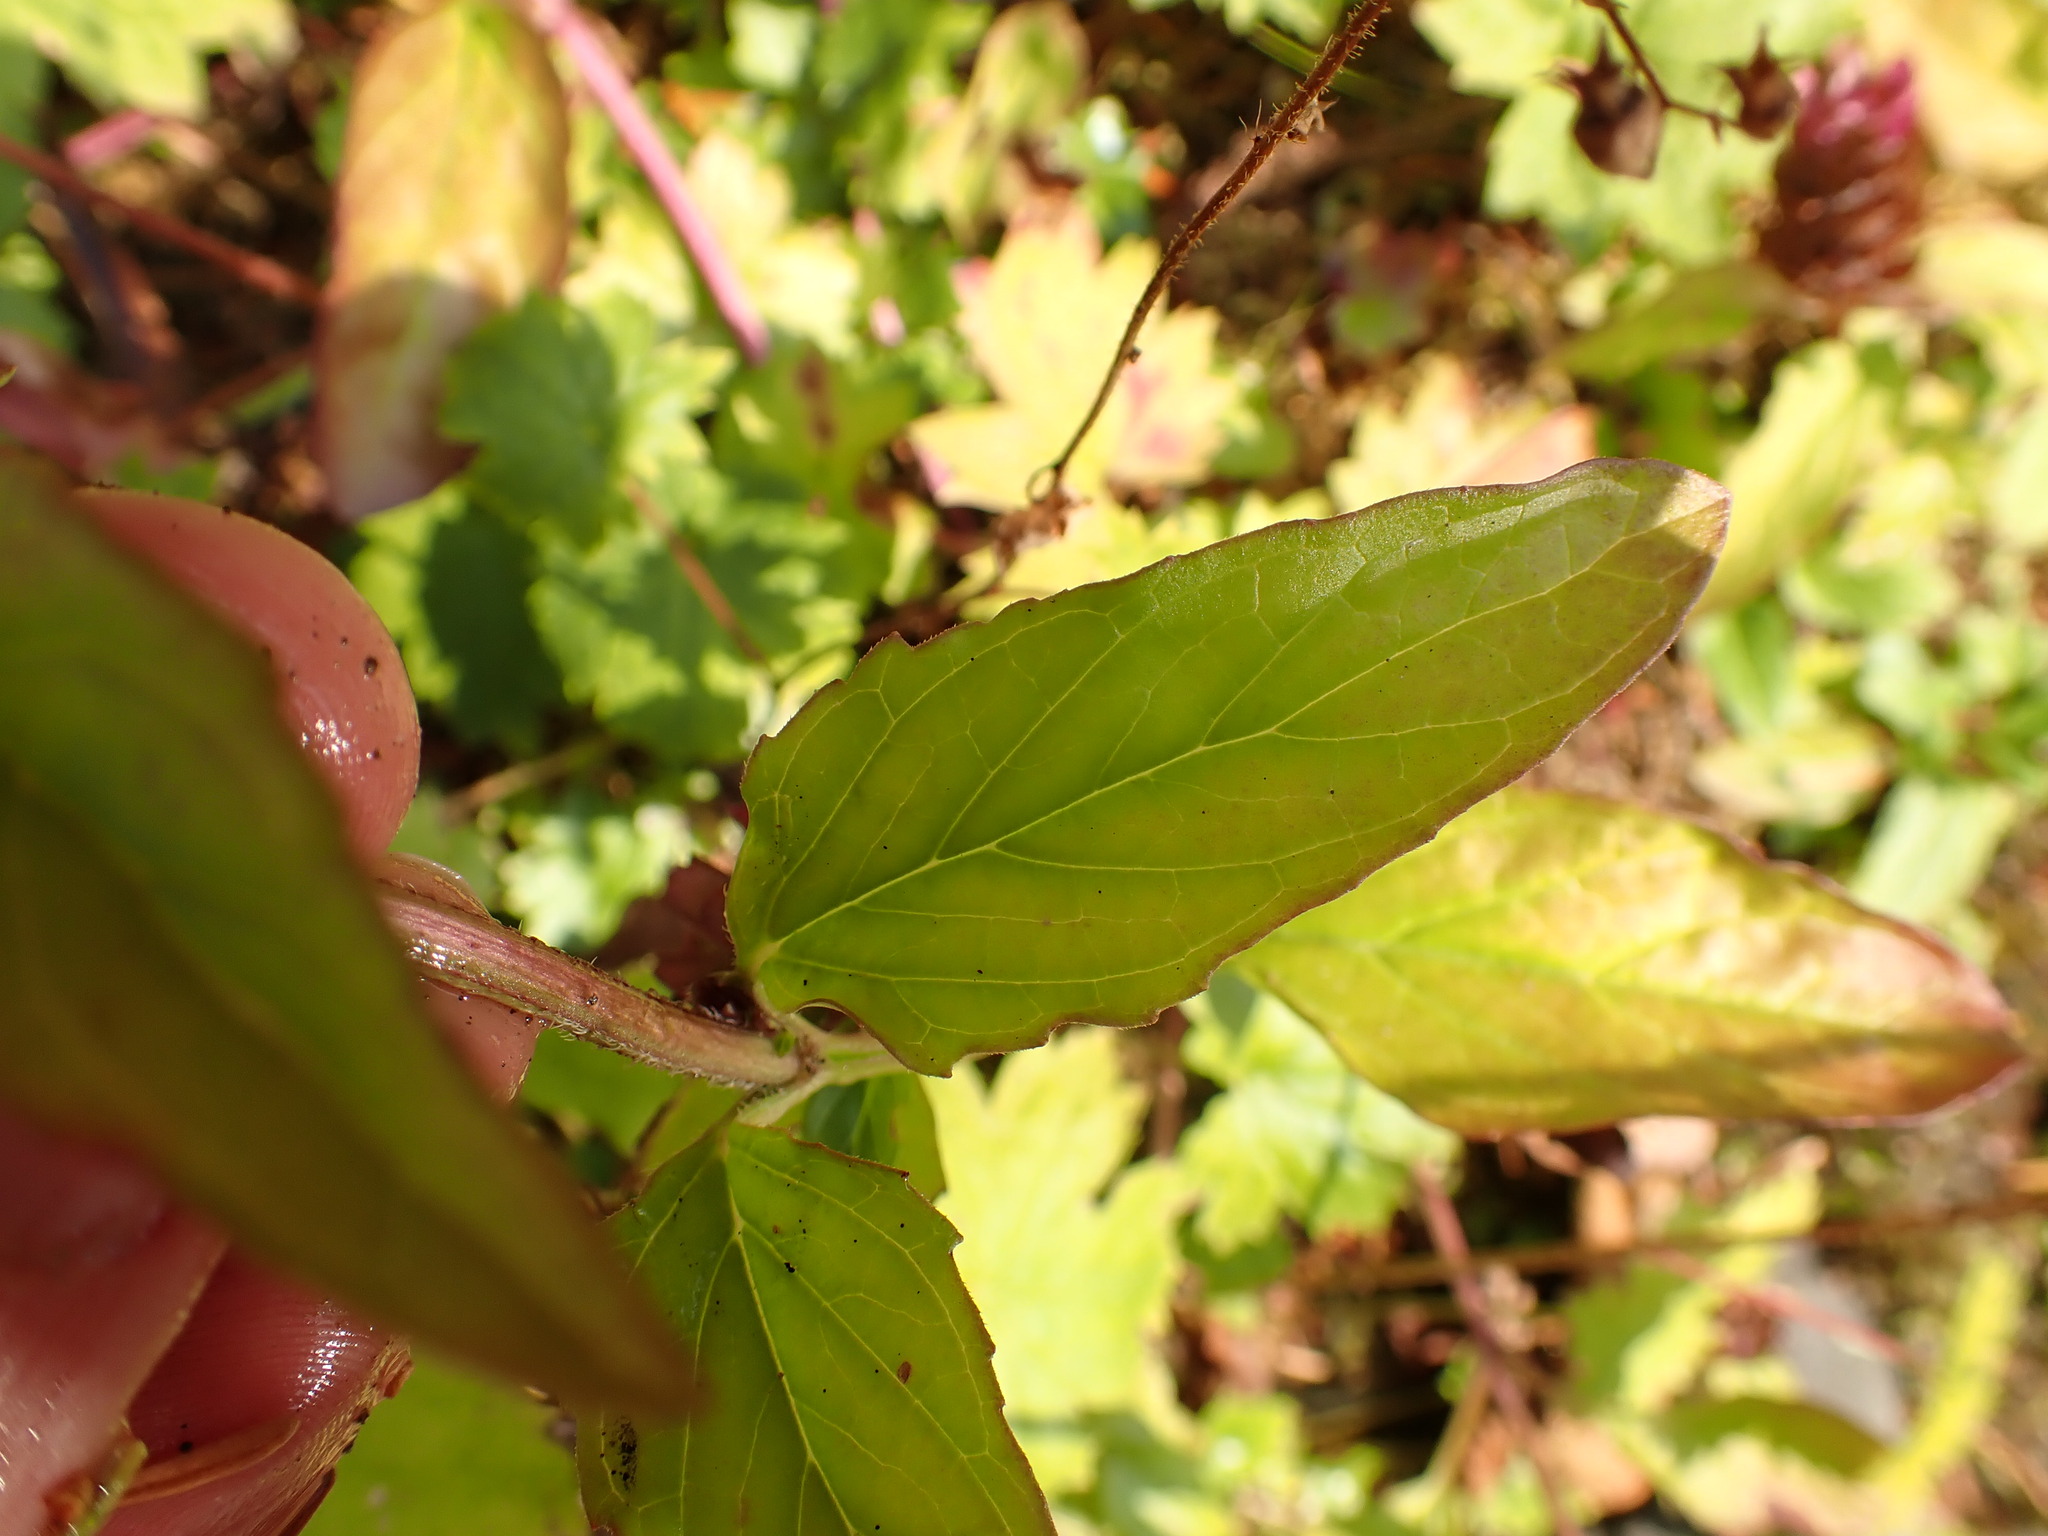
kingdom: Plantae
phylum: Tracheophyta
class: Magnoliopsida
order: Lamiales
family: Lamiaceae
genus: Prunella
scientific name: Prunella vulgaris
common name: Heal-all
